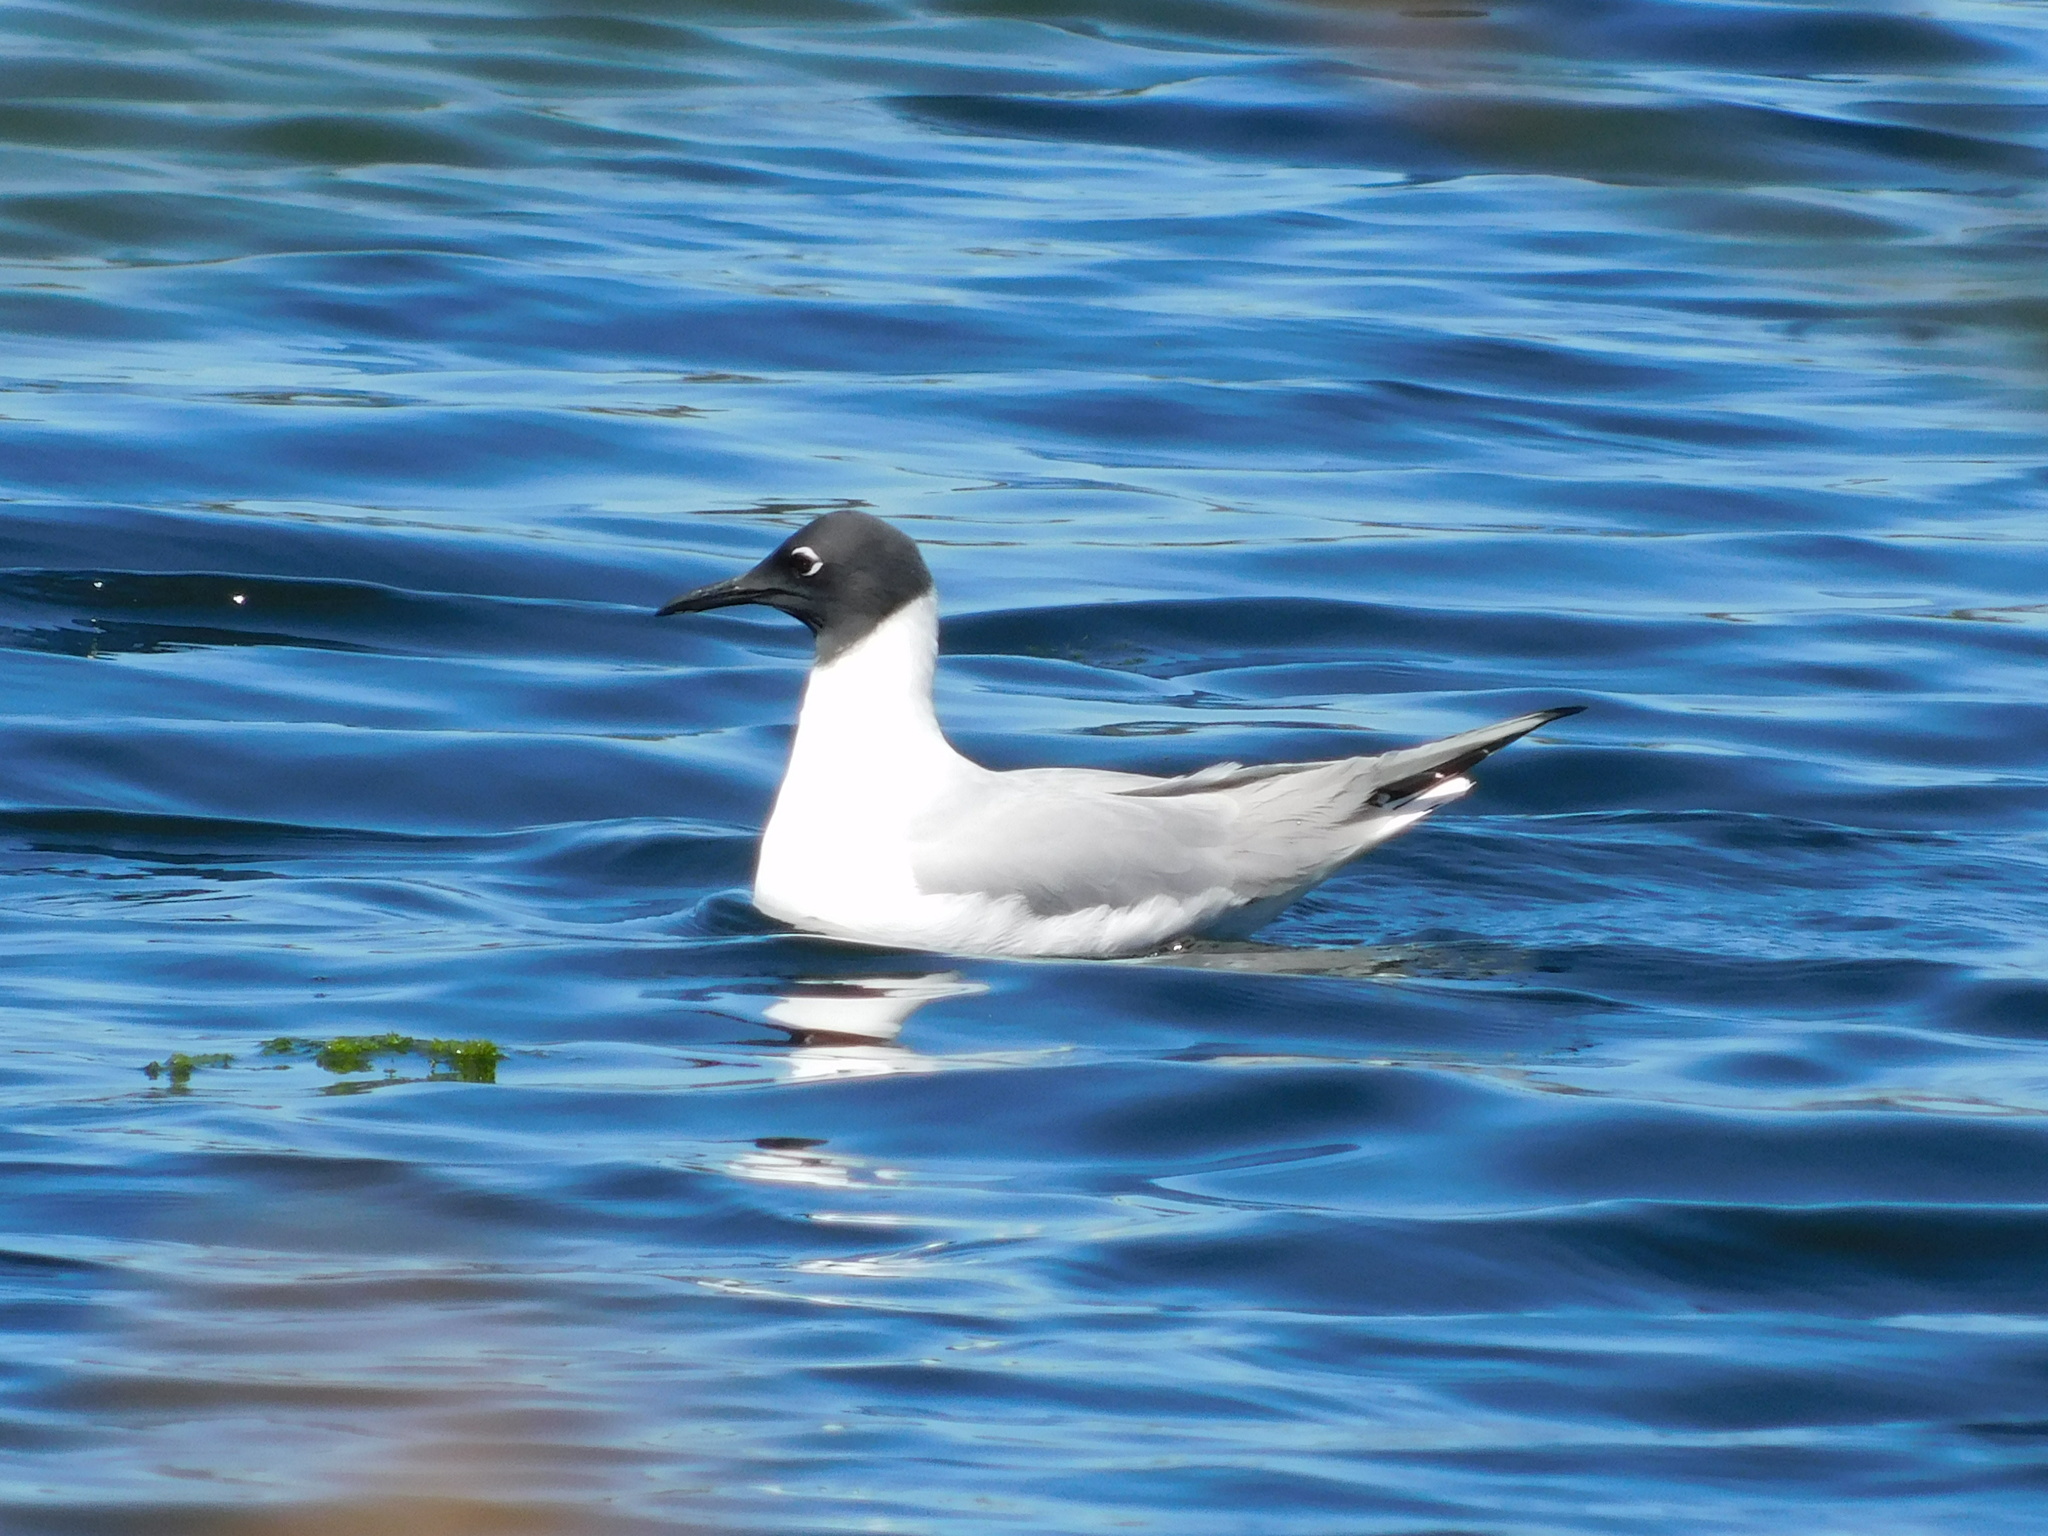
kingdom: Animalia
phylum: Chordata
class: Aves
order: Charadriiformes
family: Laridae
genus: Chroicocephalus
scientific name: Chroicocephalus philadelphia
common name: Bonaparte's gull
